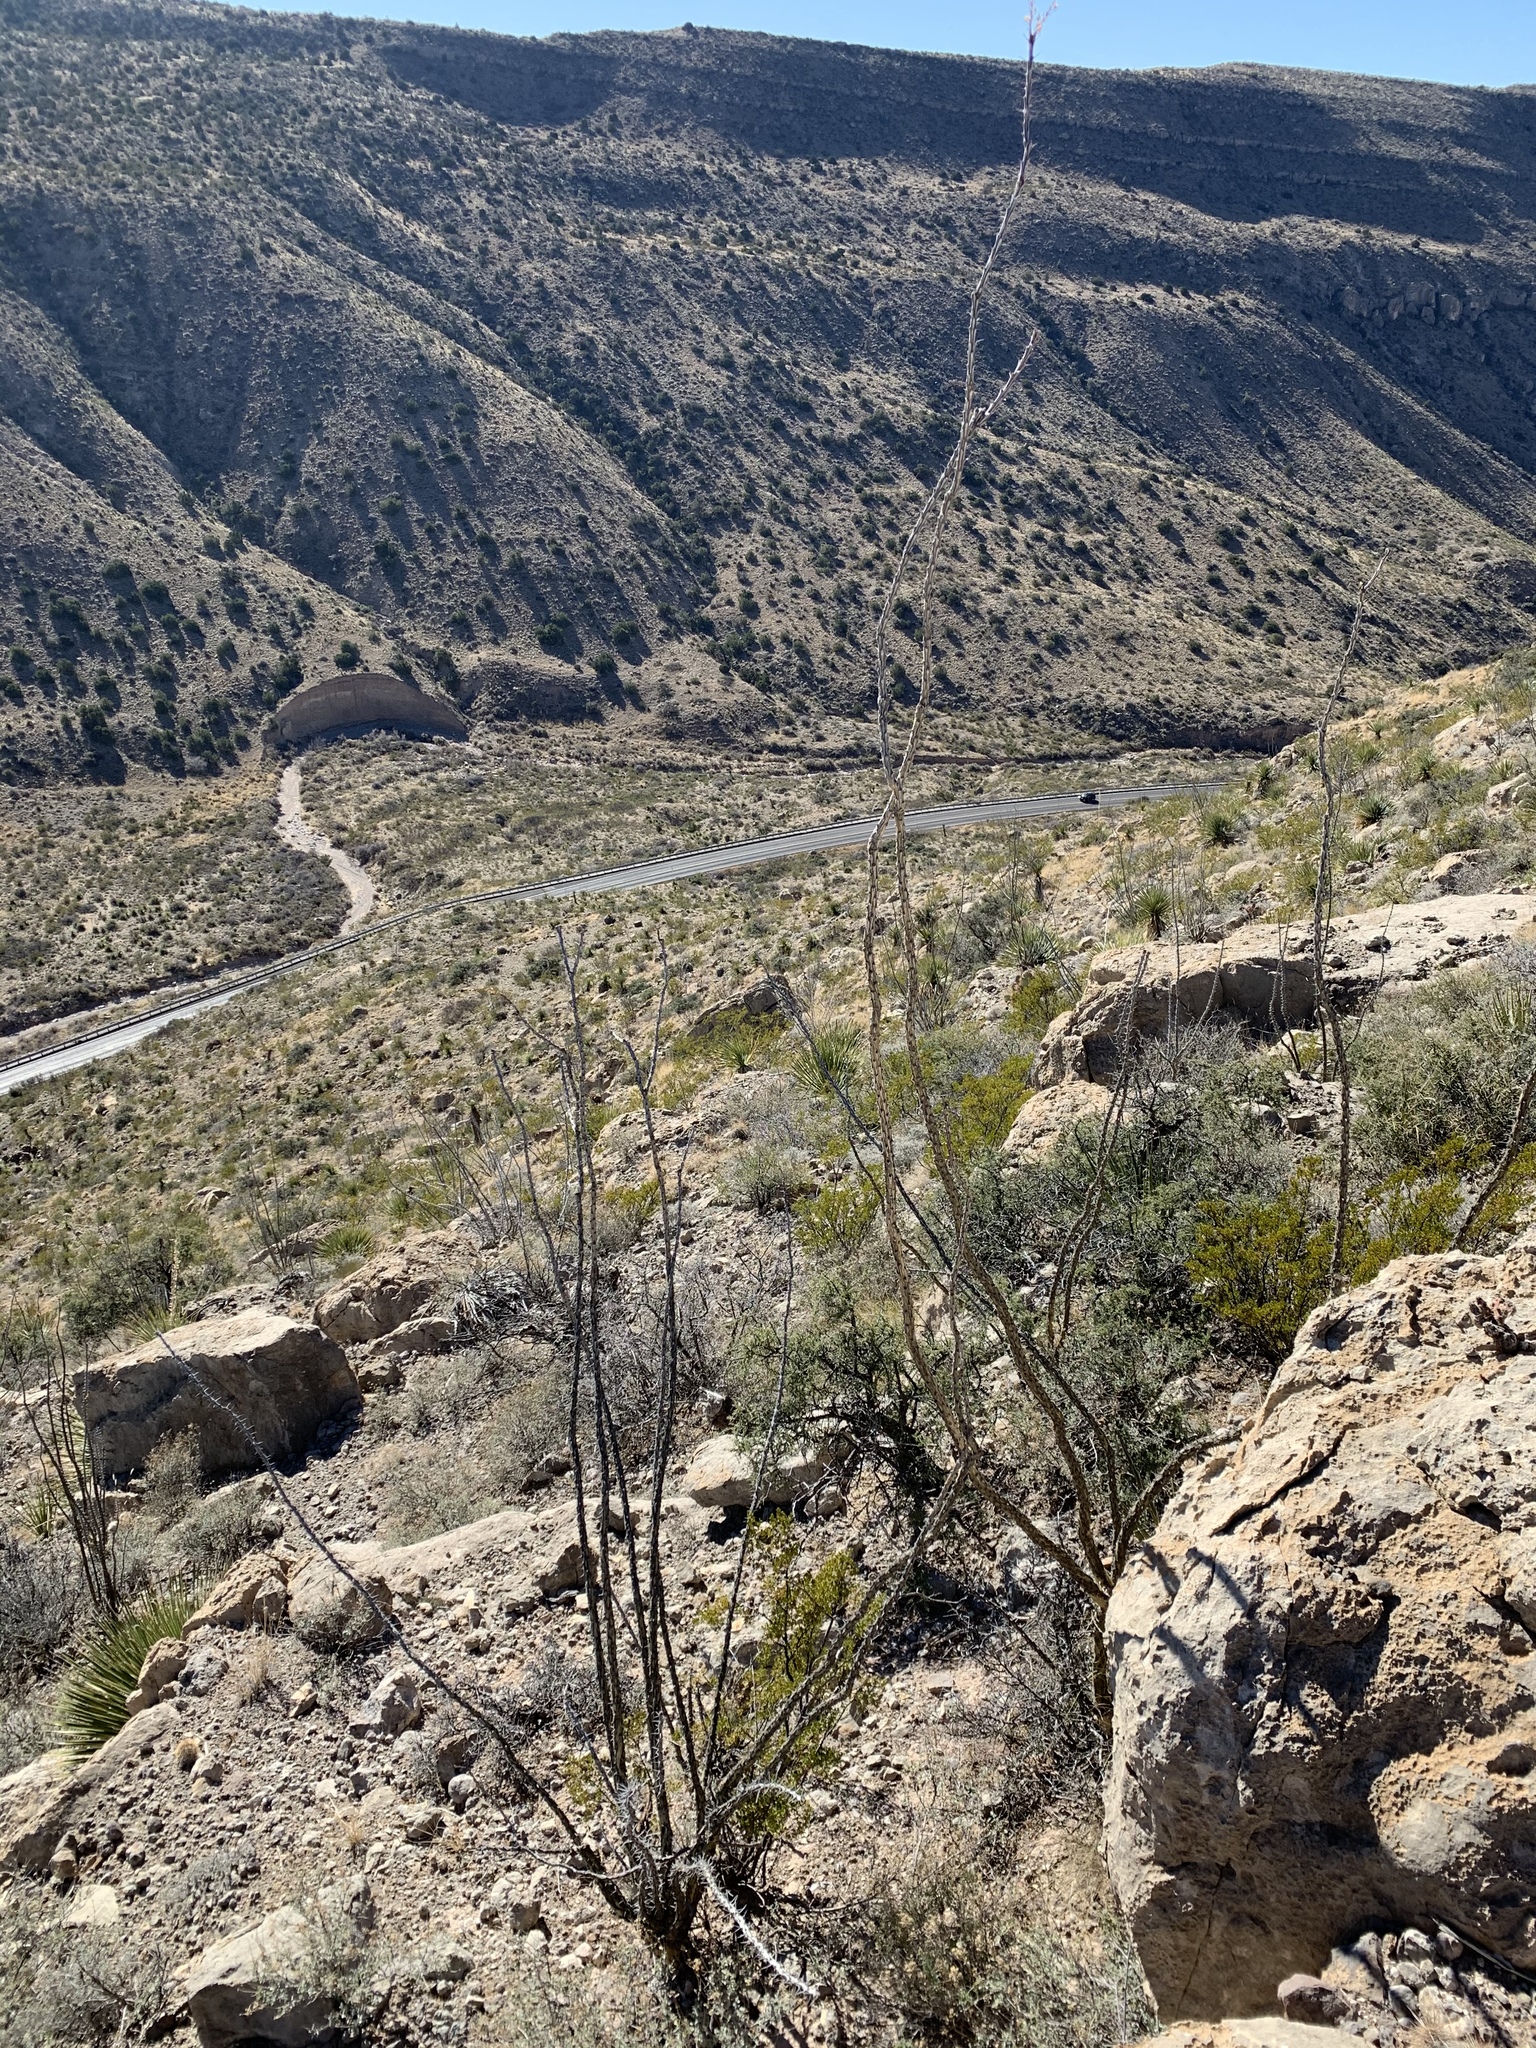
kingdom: Plantae
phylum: Tracheophyta
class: Magnoliopsida
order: Ericales
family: Fouquieriaceae
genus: Fouquieria
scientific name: Fouquieria splendens
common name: Vine-cactus
